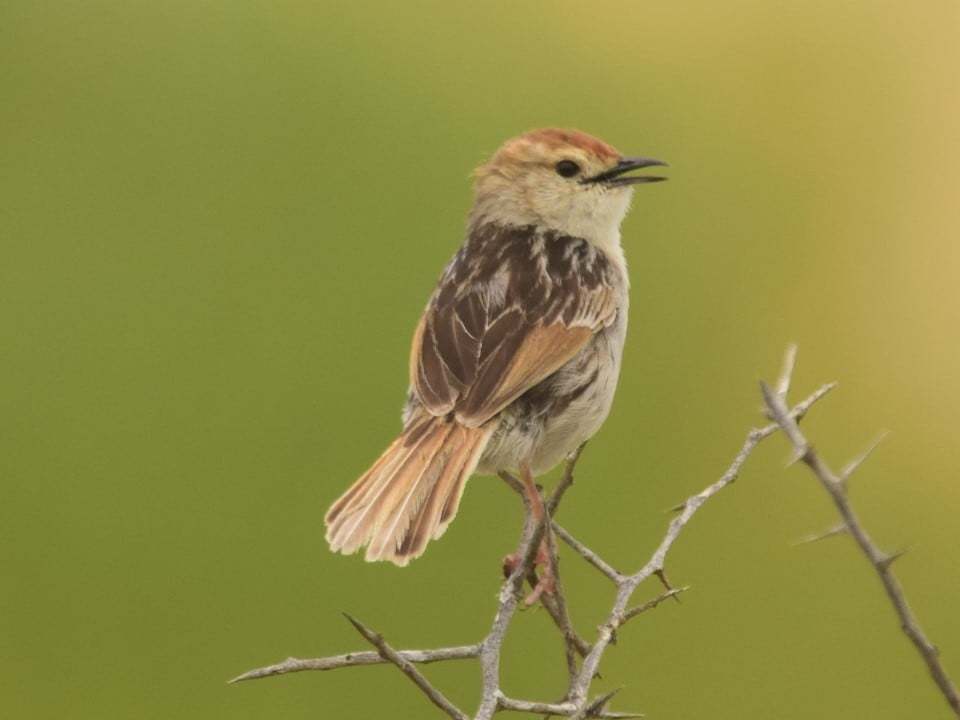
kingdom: Animalia
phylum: Chordata
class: Aves
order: Passeriformes
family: Cisticolidae
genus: Cisticola
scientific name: Cisticola tinniens
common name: Levaillant's cisticola
